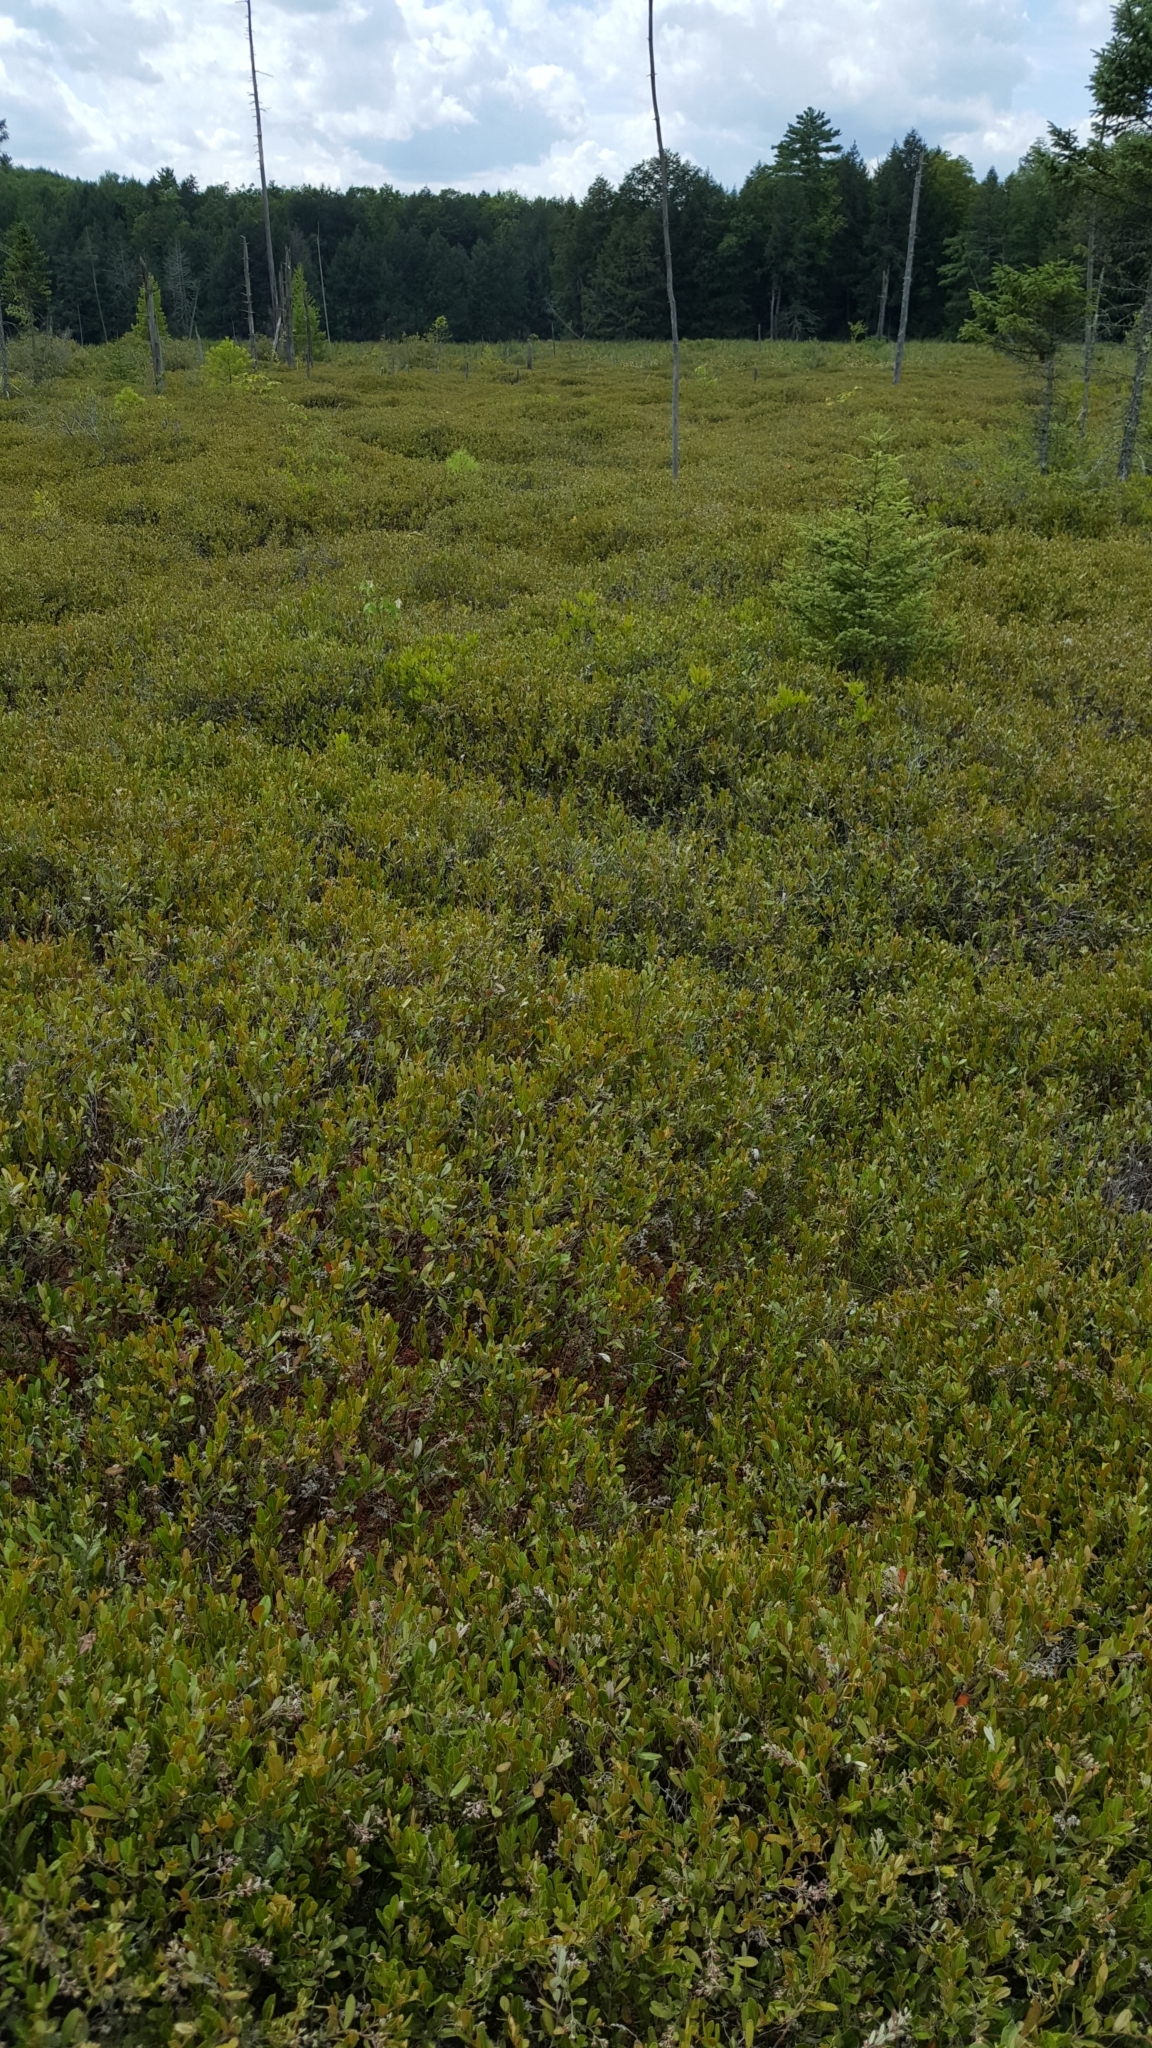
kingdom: Plantae
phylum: Tracheophyta
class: Magnoliopsida
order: Ericales
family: Ericaceae
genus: Chamaedaphne
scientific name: Chamaedaphne calyculata
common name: Leatherleaf
